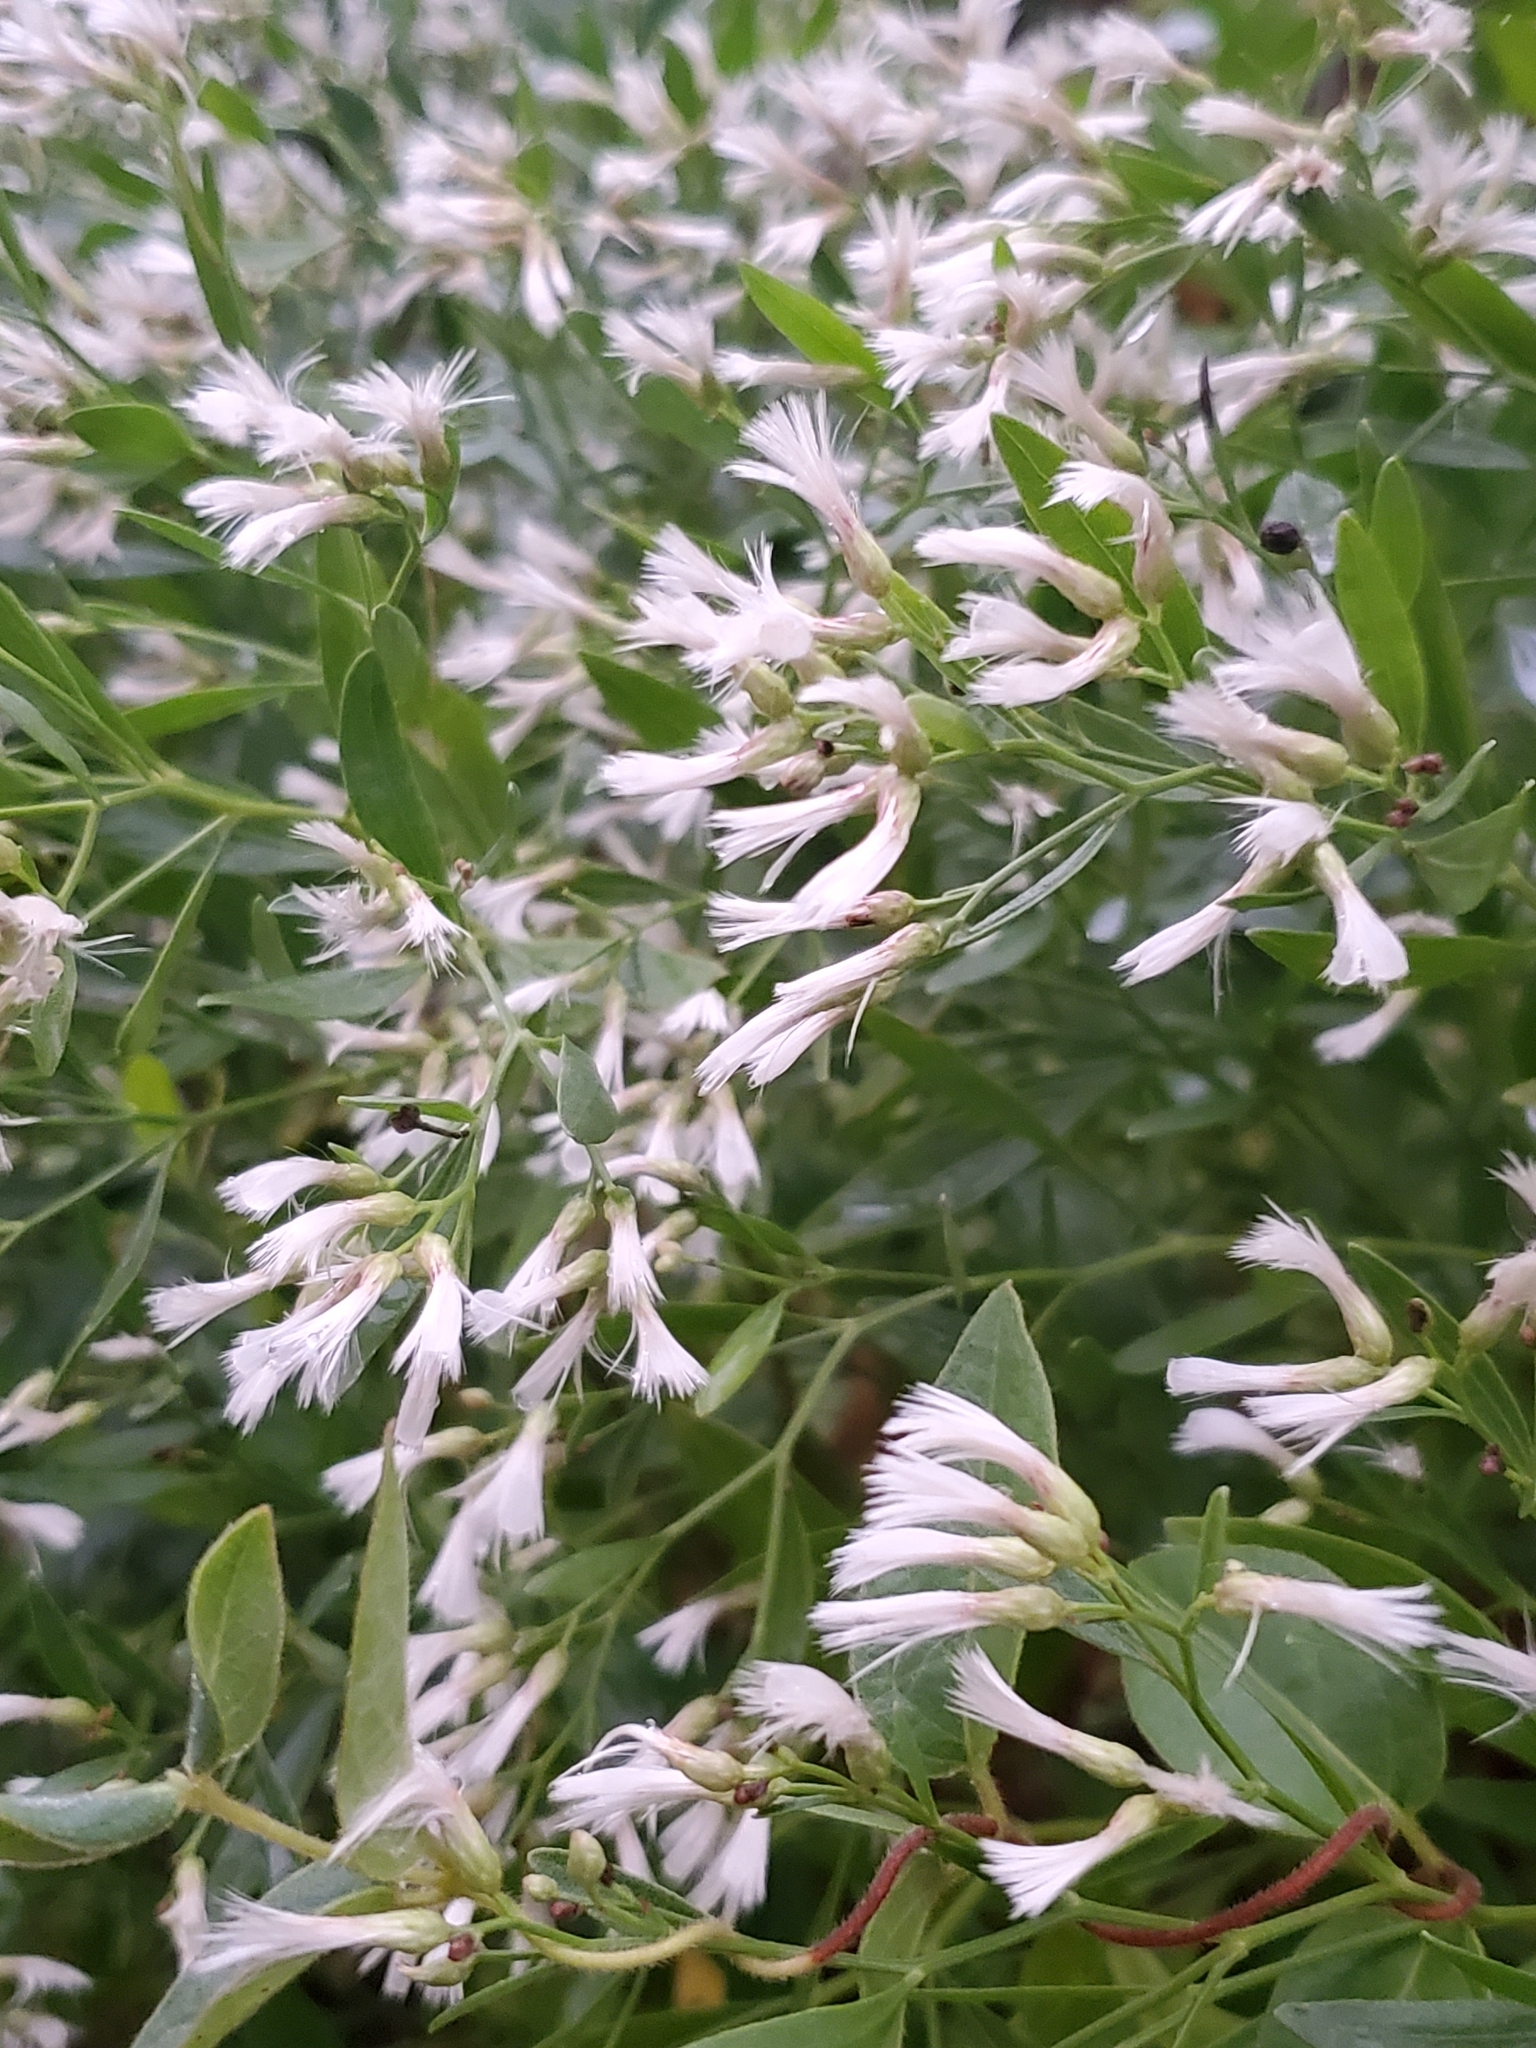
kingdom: Plantae
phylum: Tracheophyta
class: Magnoliopsida
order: Asterales
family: Asteraceae
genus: Baccharis
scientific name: Baccharis halimifolia
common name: Eastern baccharis
